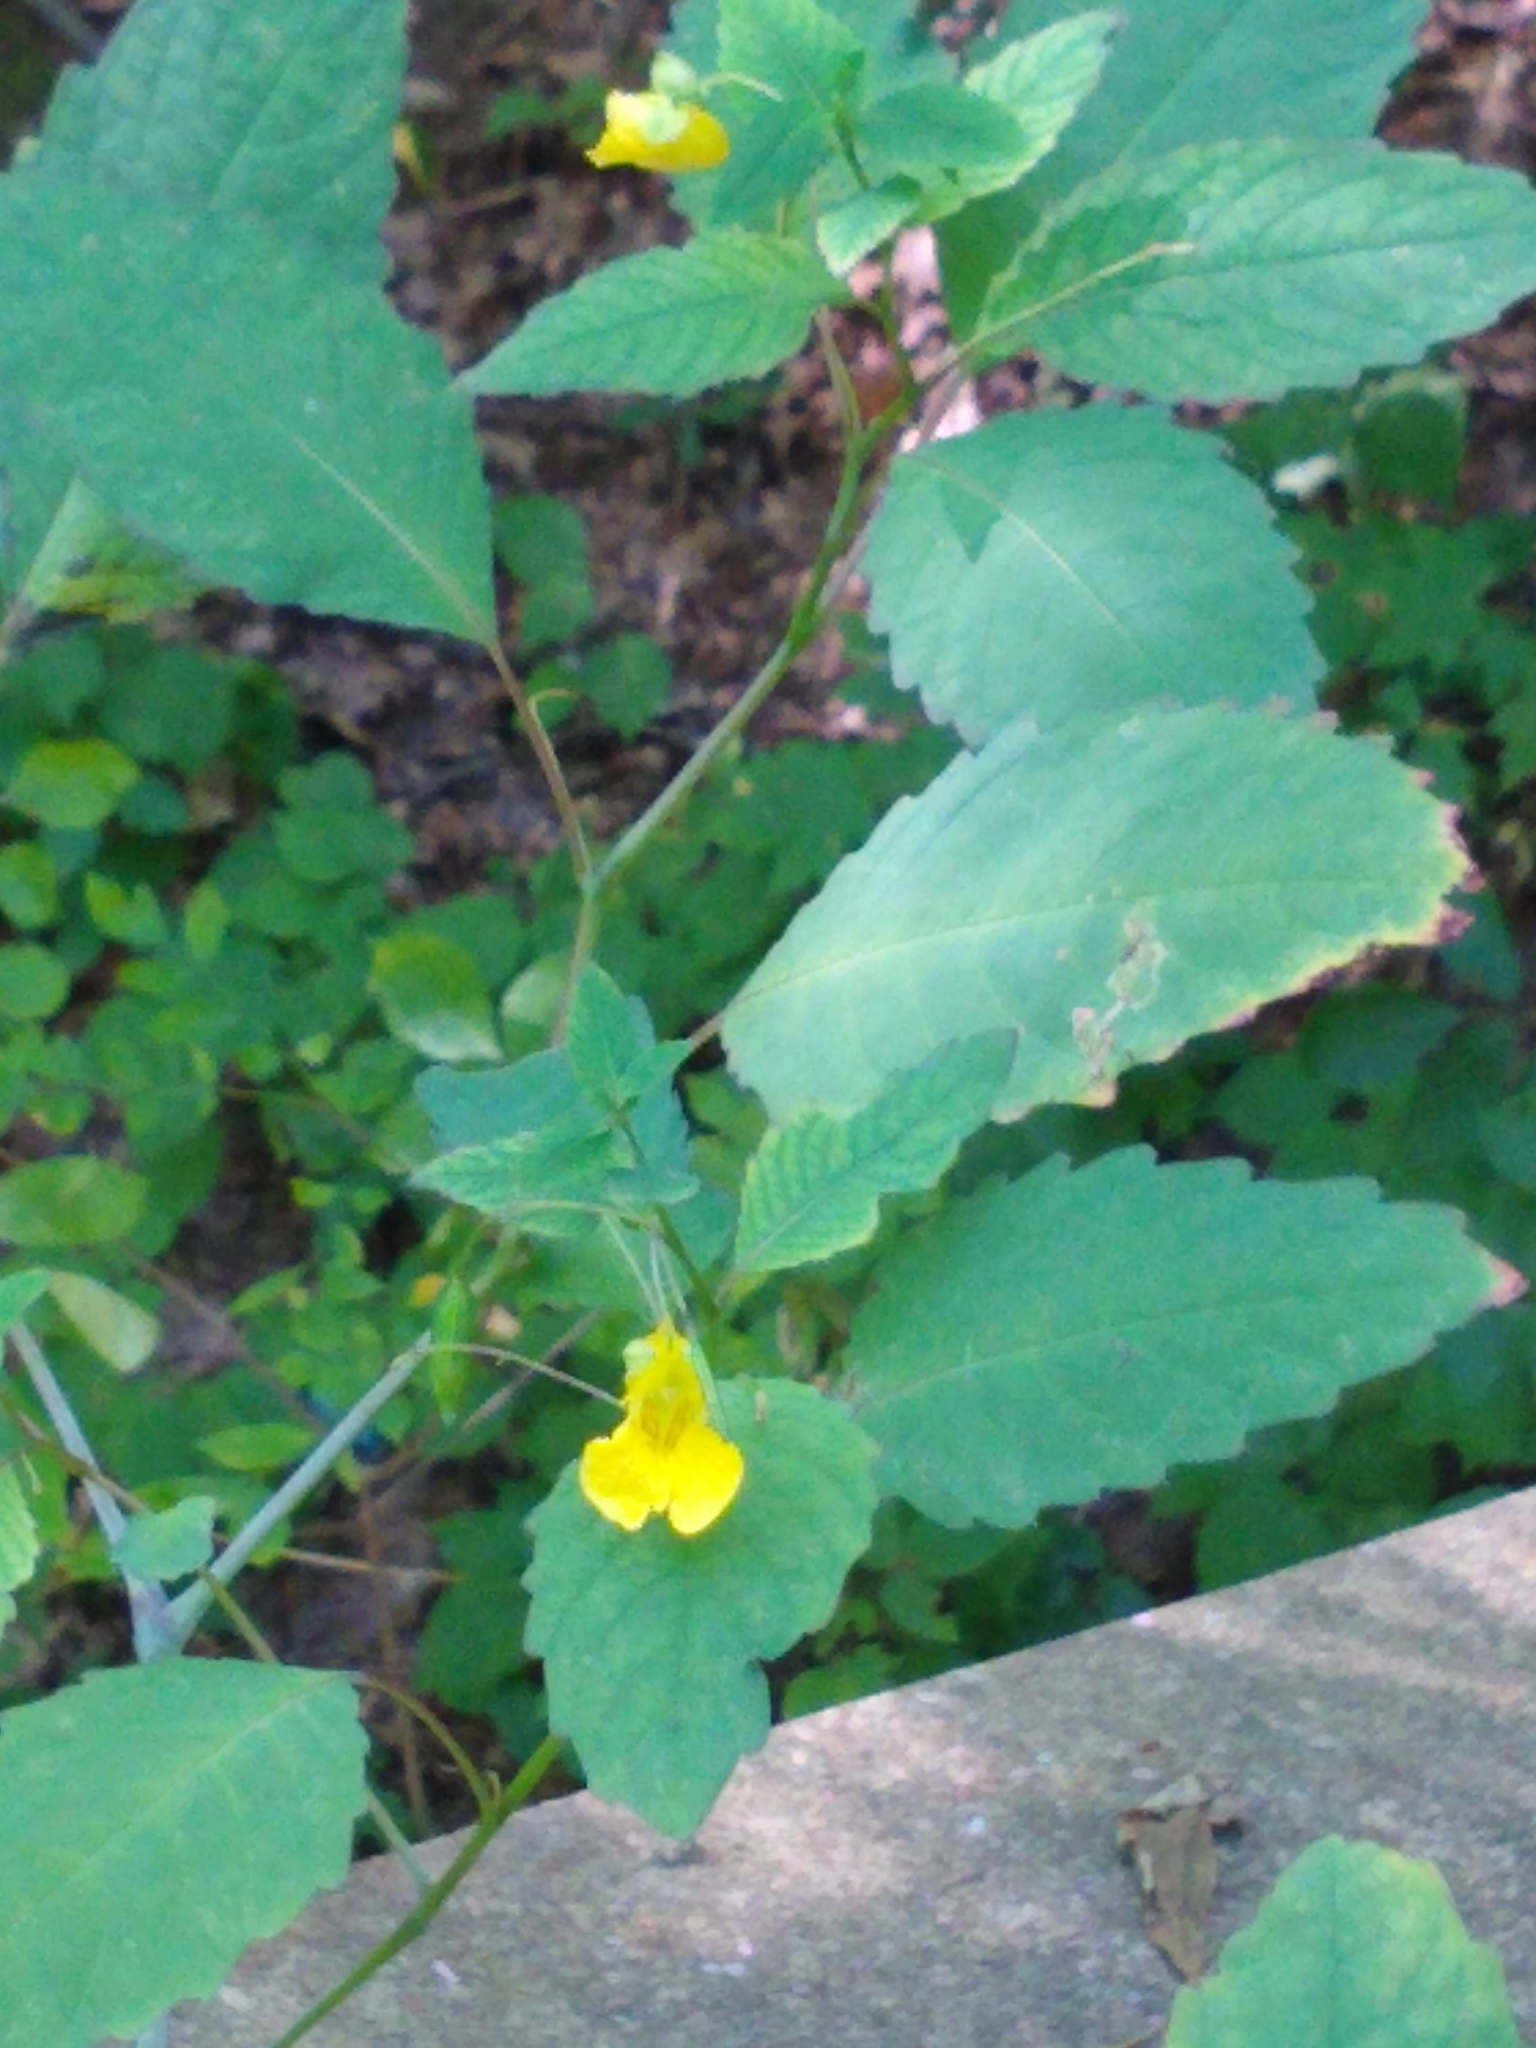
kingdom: Plantae
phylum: Tracheophyta
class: Magnoliopsida
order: Ericales
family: Balsaminaceae
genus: Impatiens
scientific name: Impatiens pallida
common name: Pale snapweed
